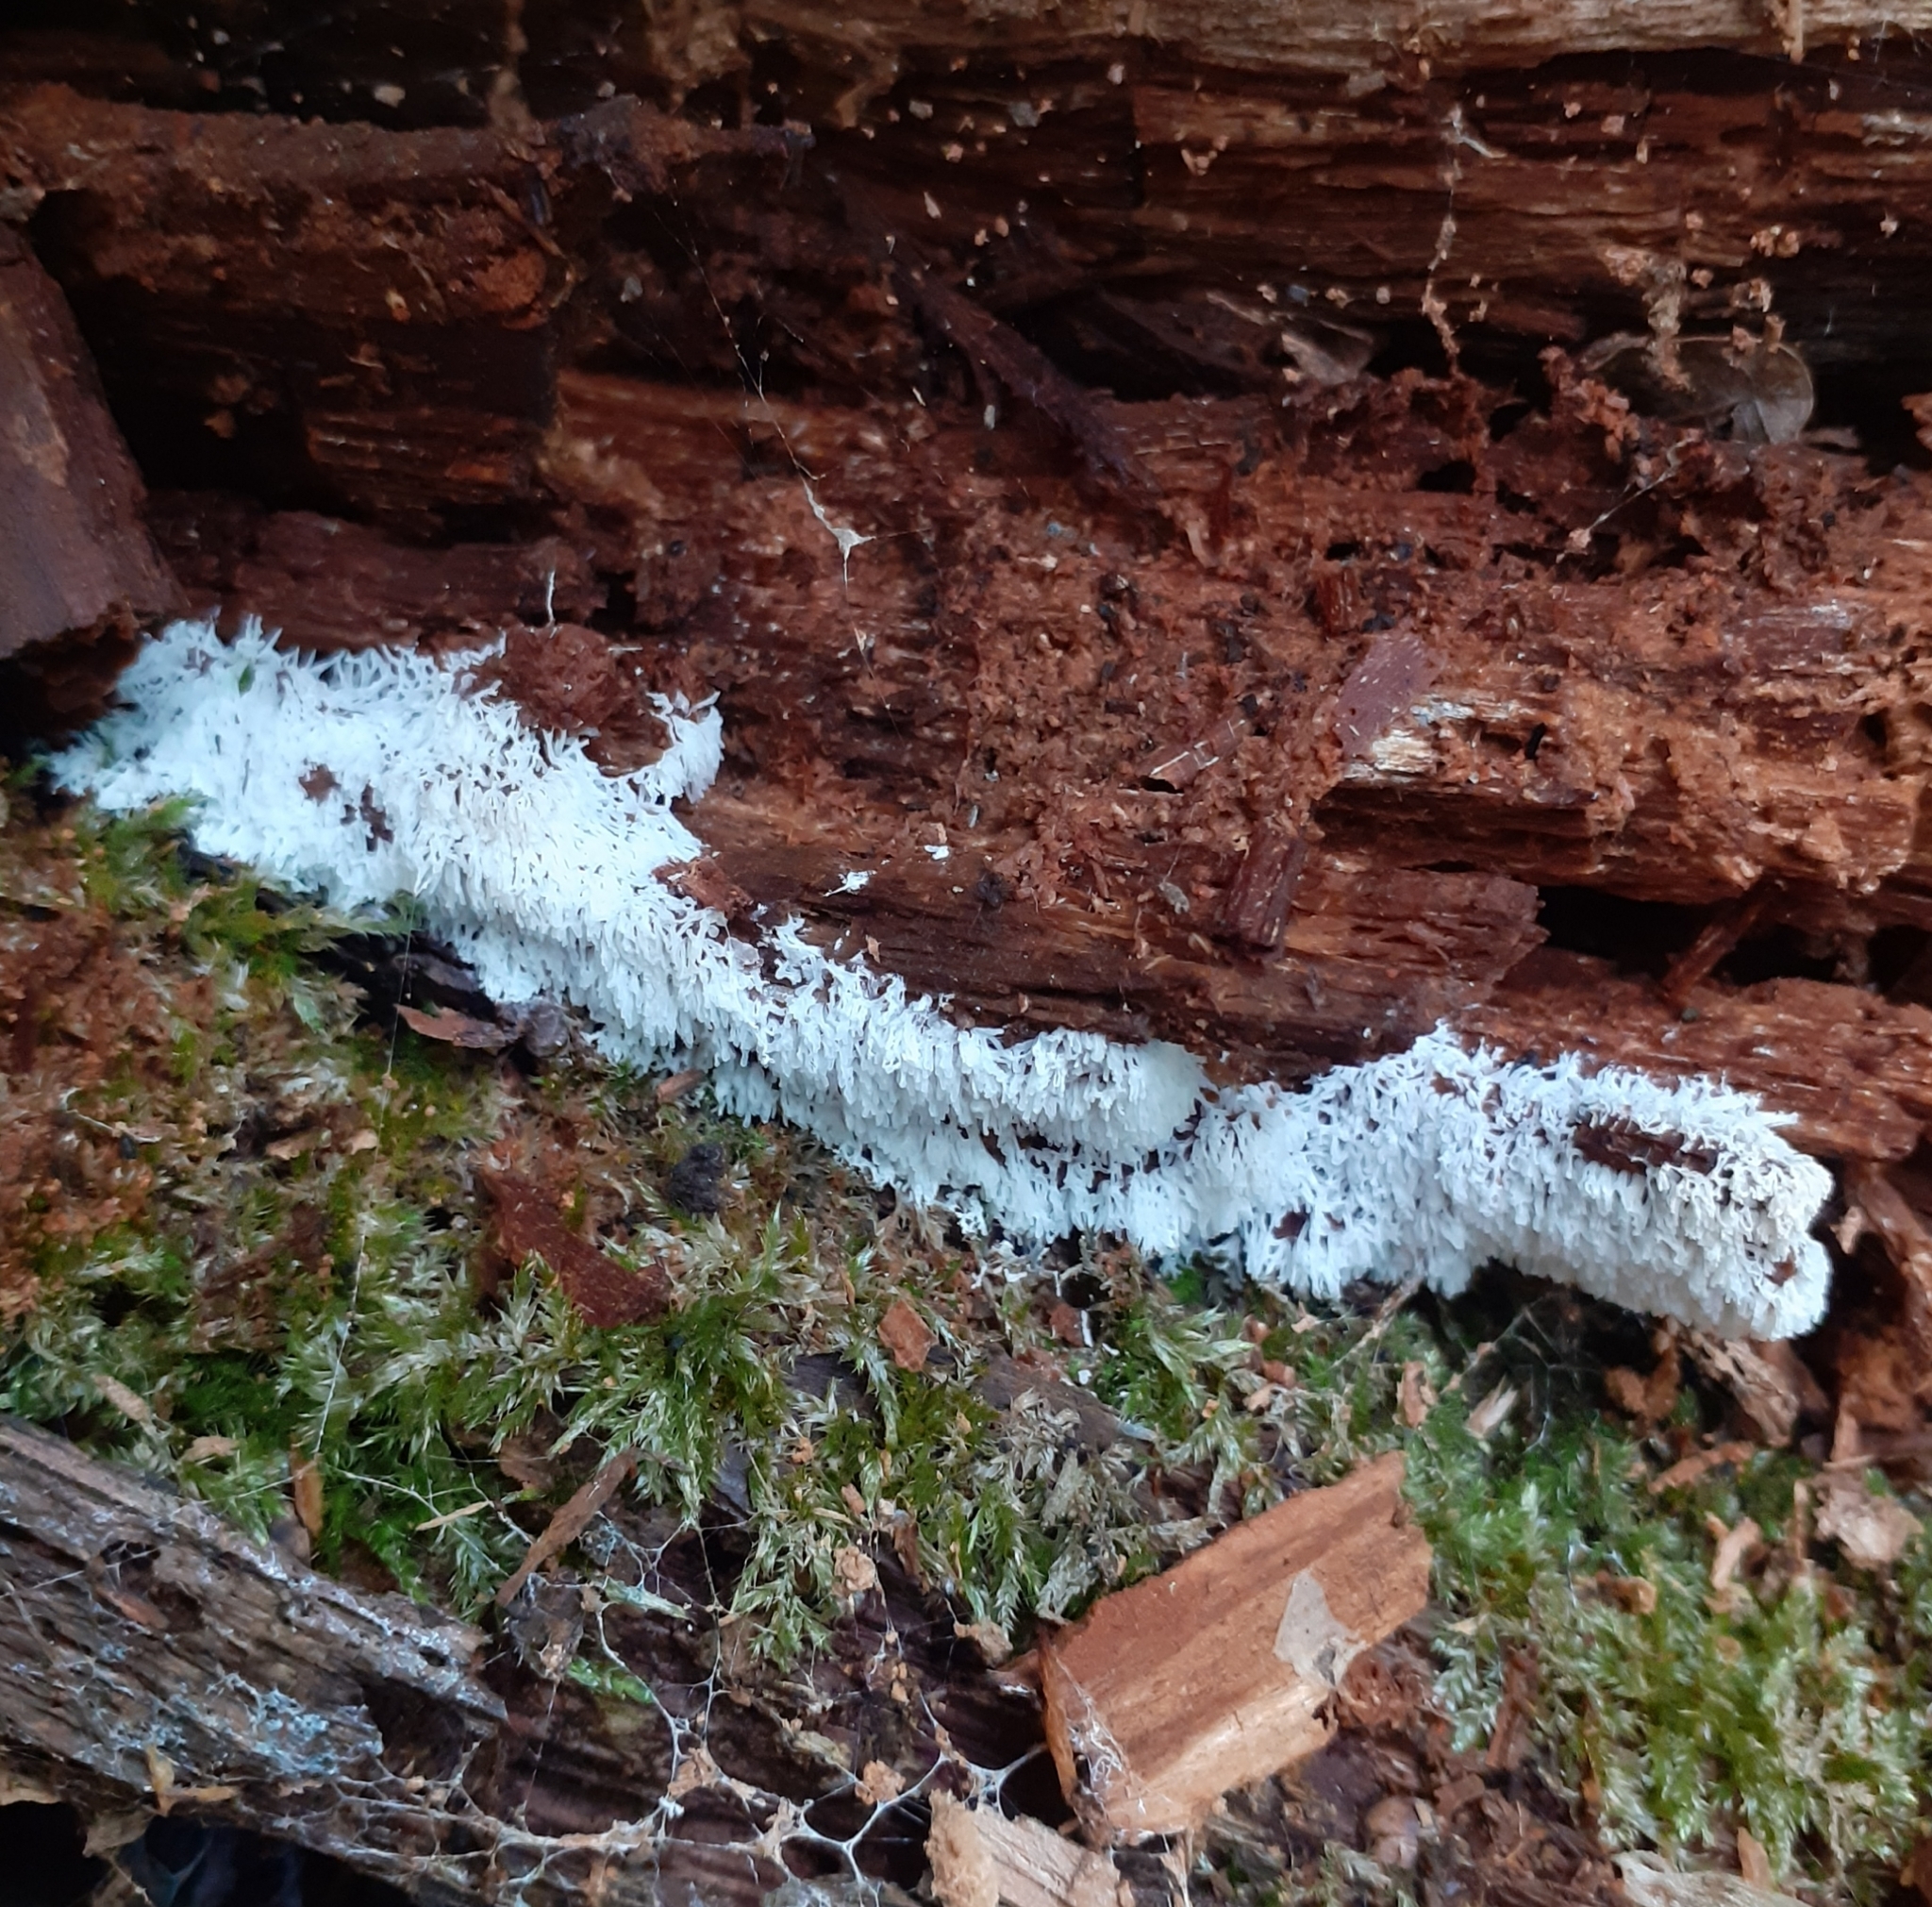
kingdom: Protozoa
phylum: Mycetozoa
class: Protosteliomycetes
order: Ceratiomyxales
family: Ceratiomyxaceae
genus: Ceratiomyxa
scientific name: Ceratiomyxa fruticulosa
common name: Honeycomb coral slime mold
